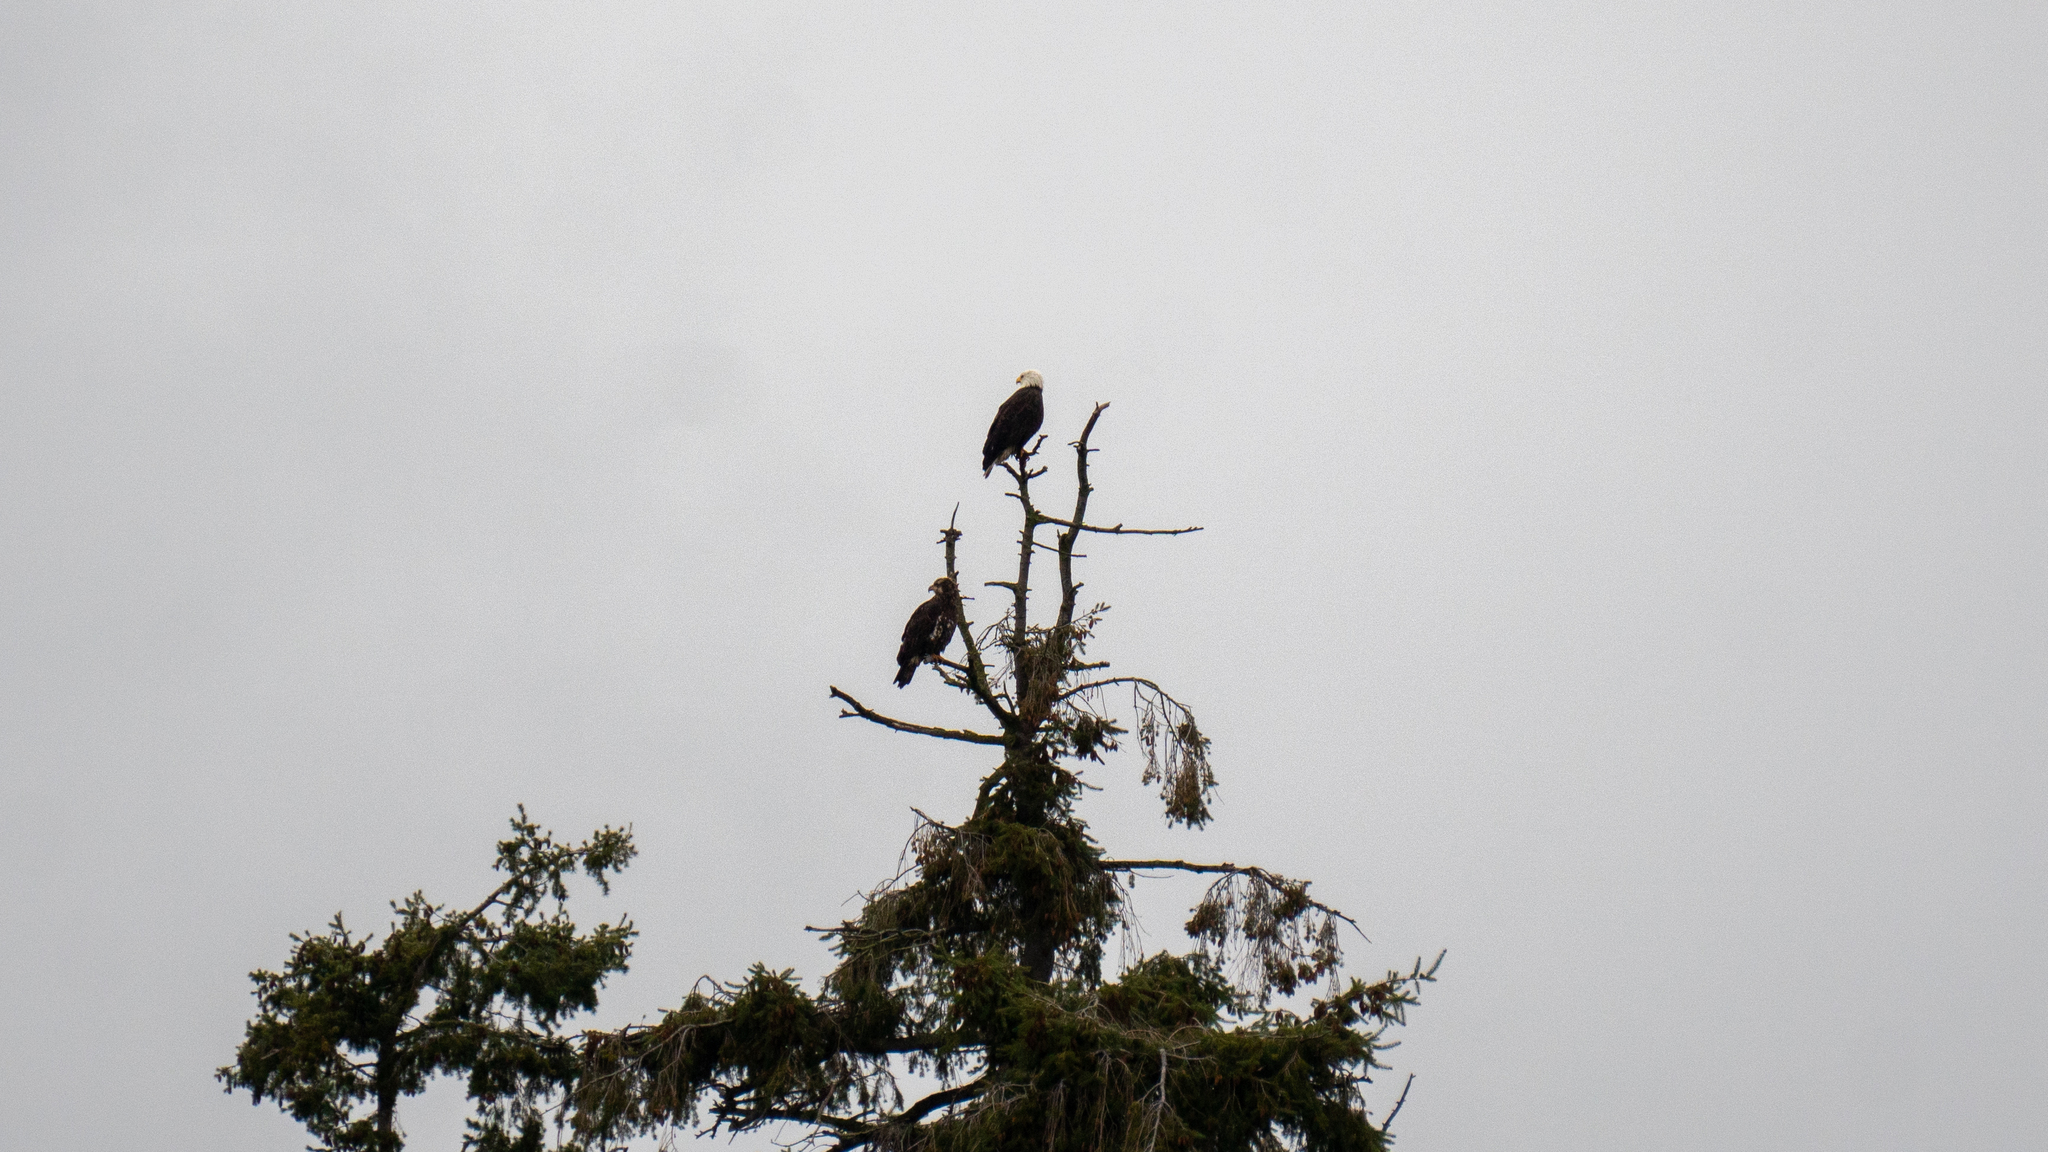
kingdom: Animalia
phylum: Chordata
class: Aves
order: Accipitriformes
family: Accipitridae
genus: Haliaeetus
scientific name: Haliaeetus leucocephalus
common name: Bald eagle
